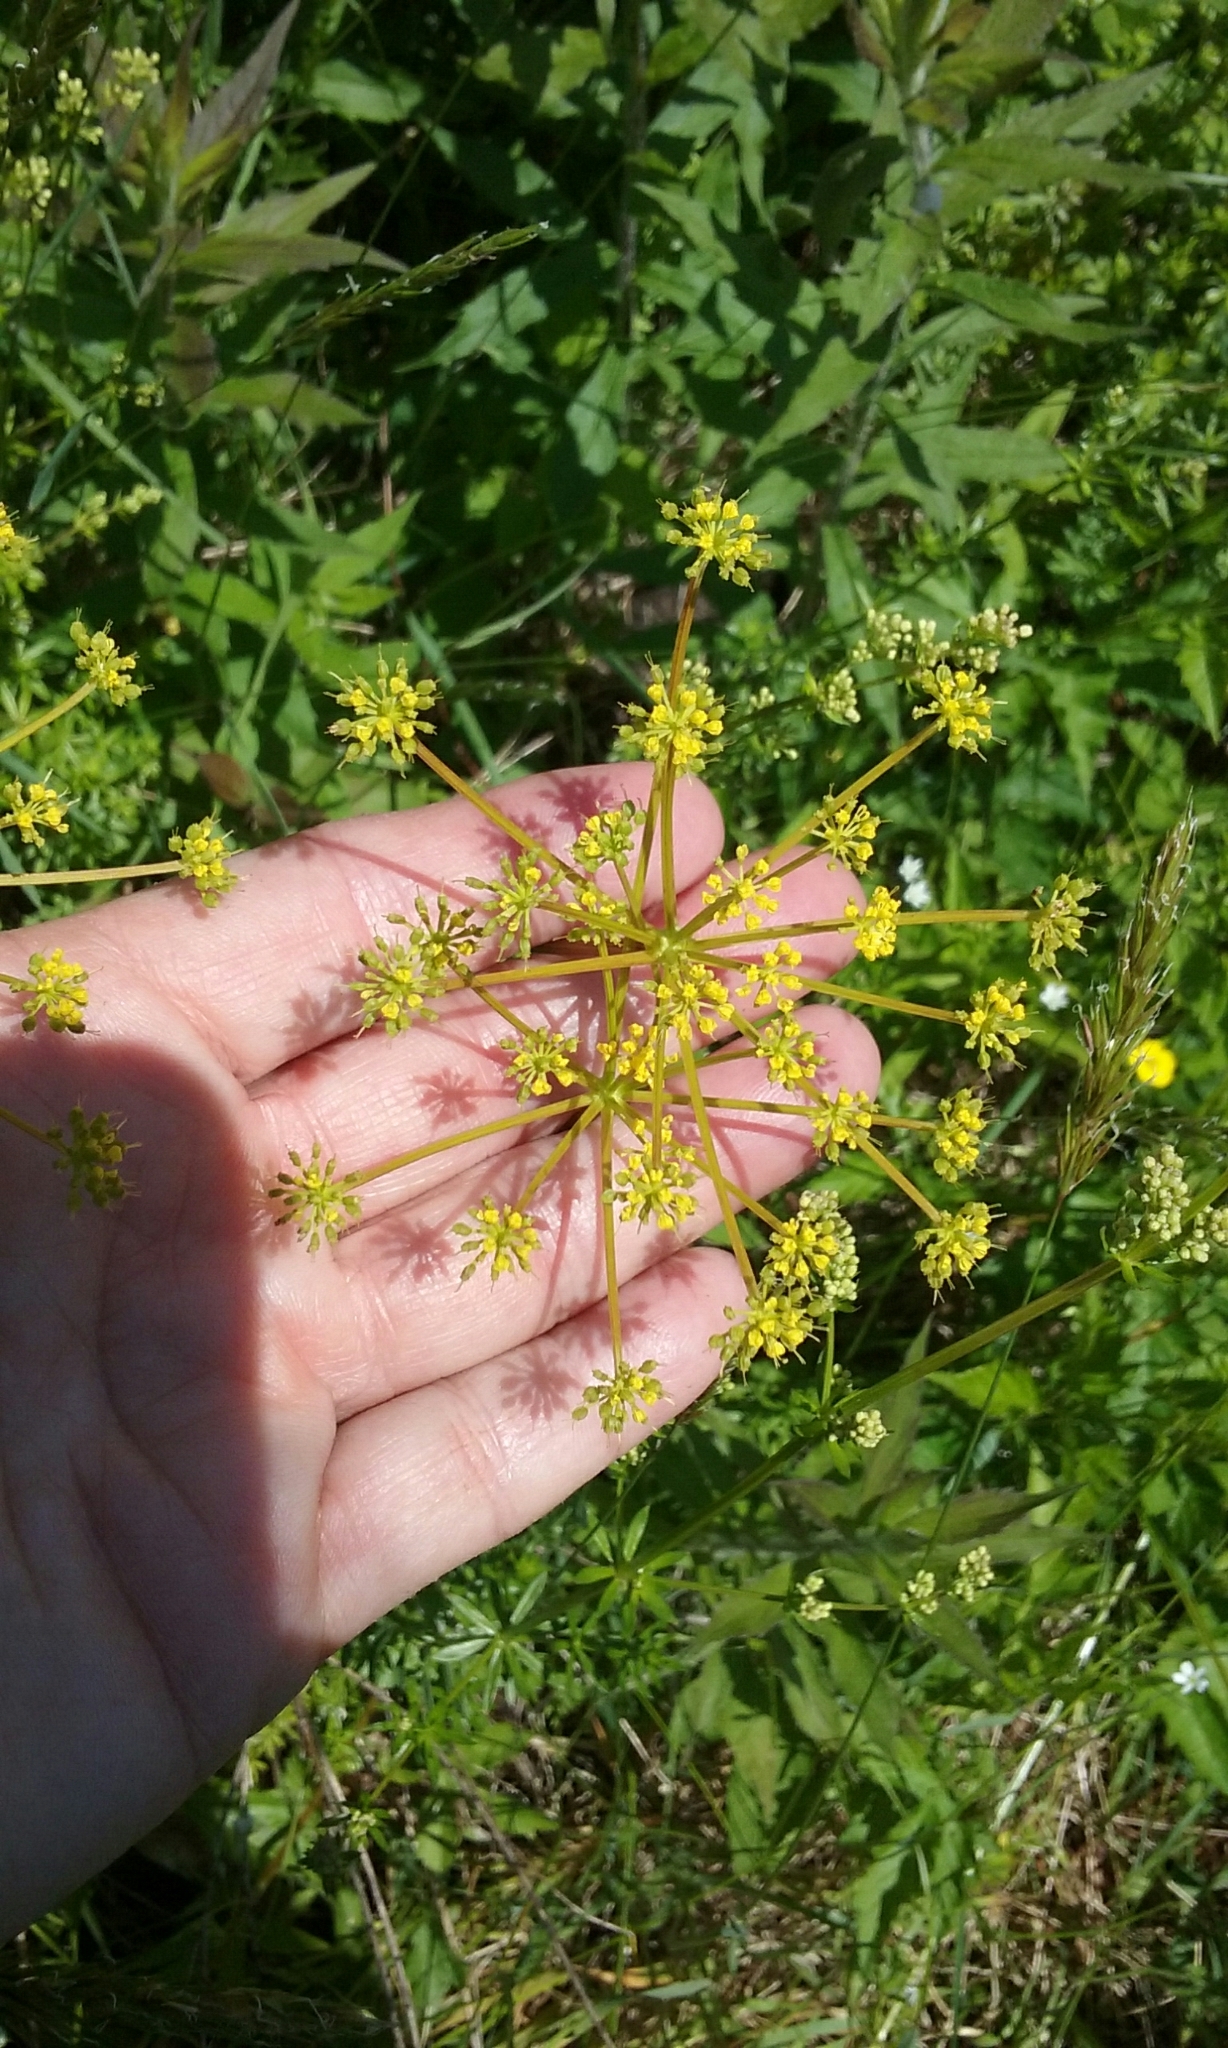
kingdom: Plantae
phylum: Tracheophyta
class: Magnoliopsida
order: Apiales
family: Apiaceae
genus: Zizia
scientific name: Zizia aurea
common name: Golden alexanders
